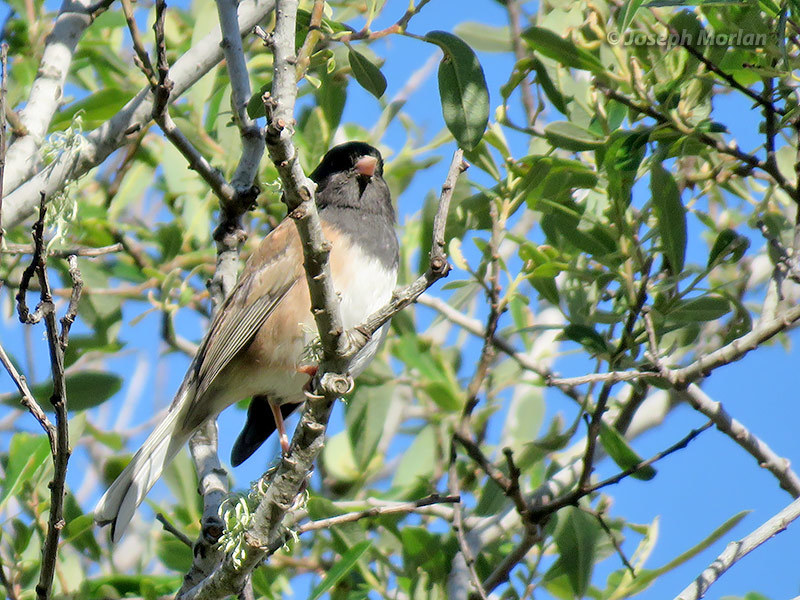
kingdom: Animalia
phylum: Chordata
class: Aves
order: Passeriformes
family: Passerellidae
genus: Junco
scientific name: Junco hyemalis
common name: Dark-eyed junco
